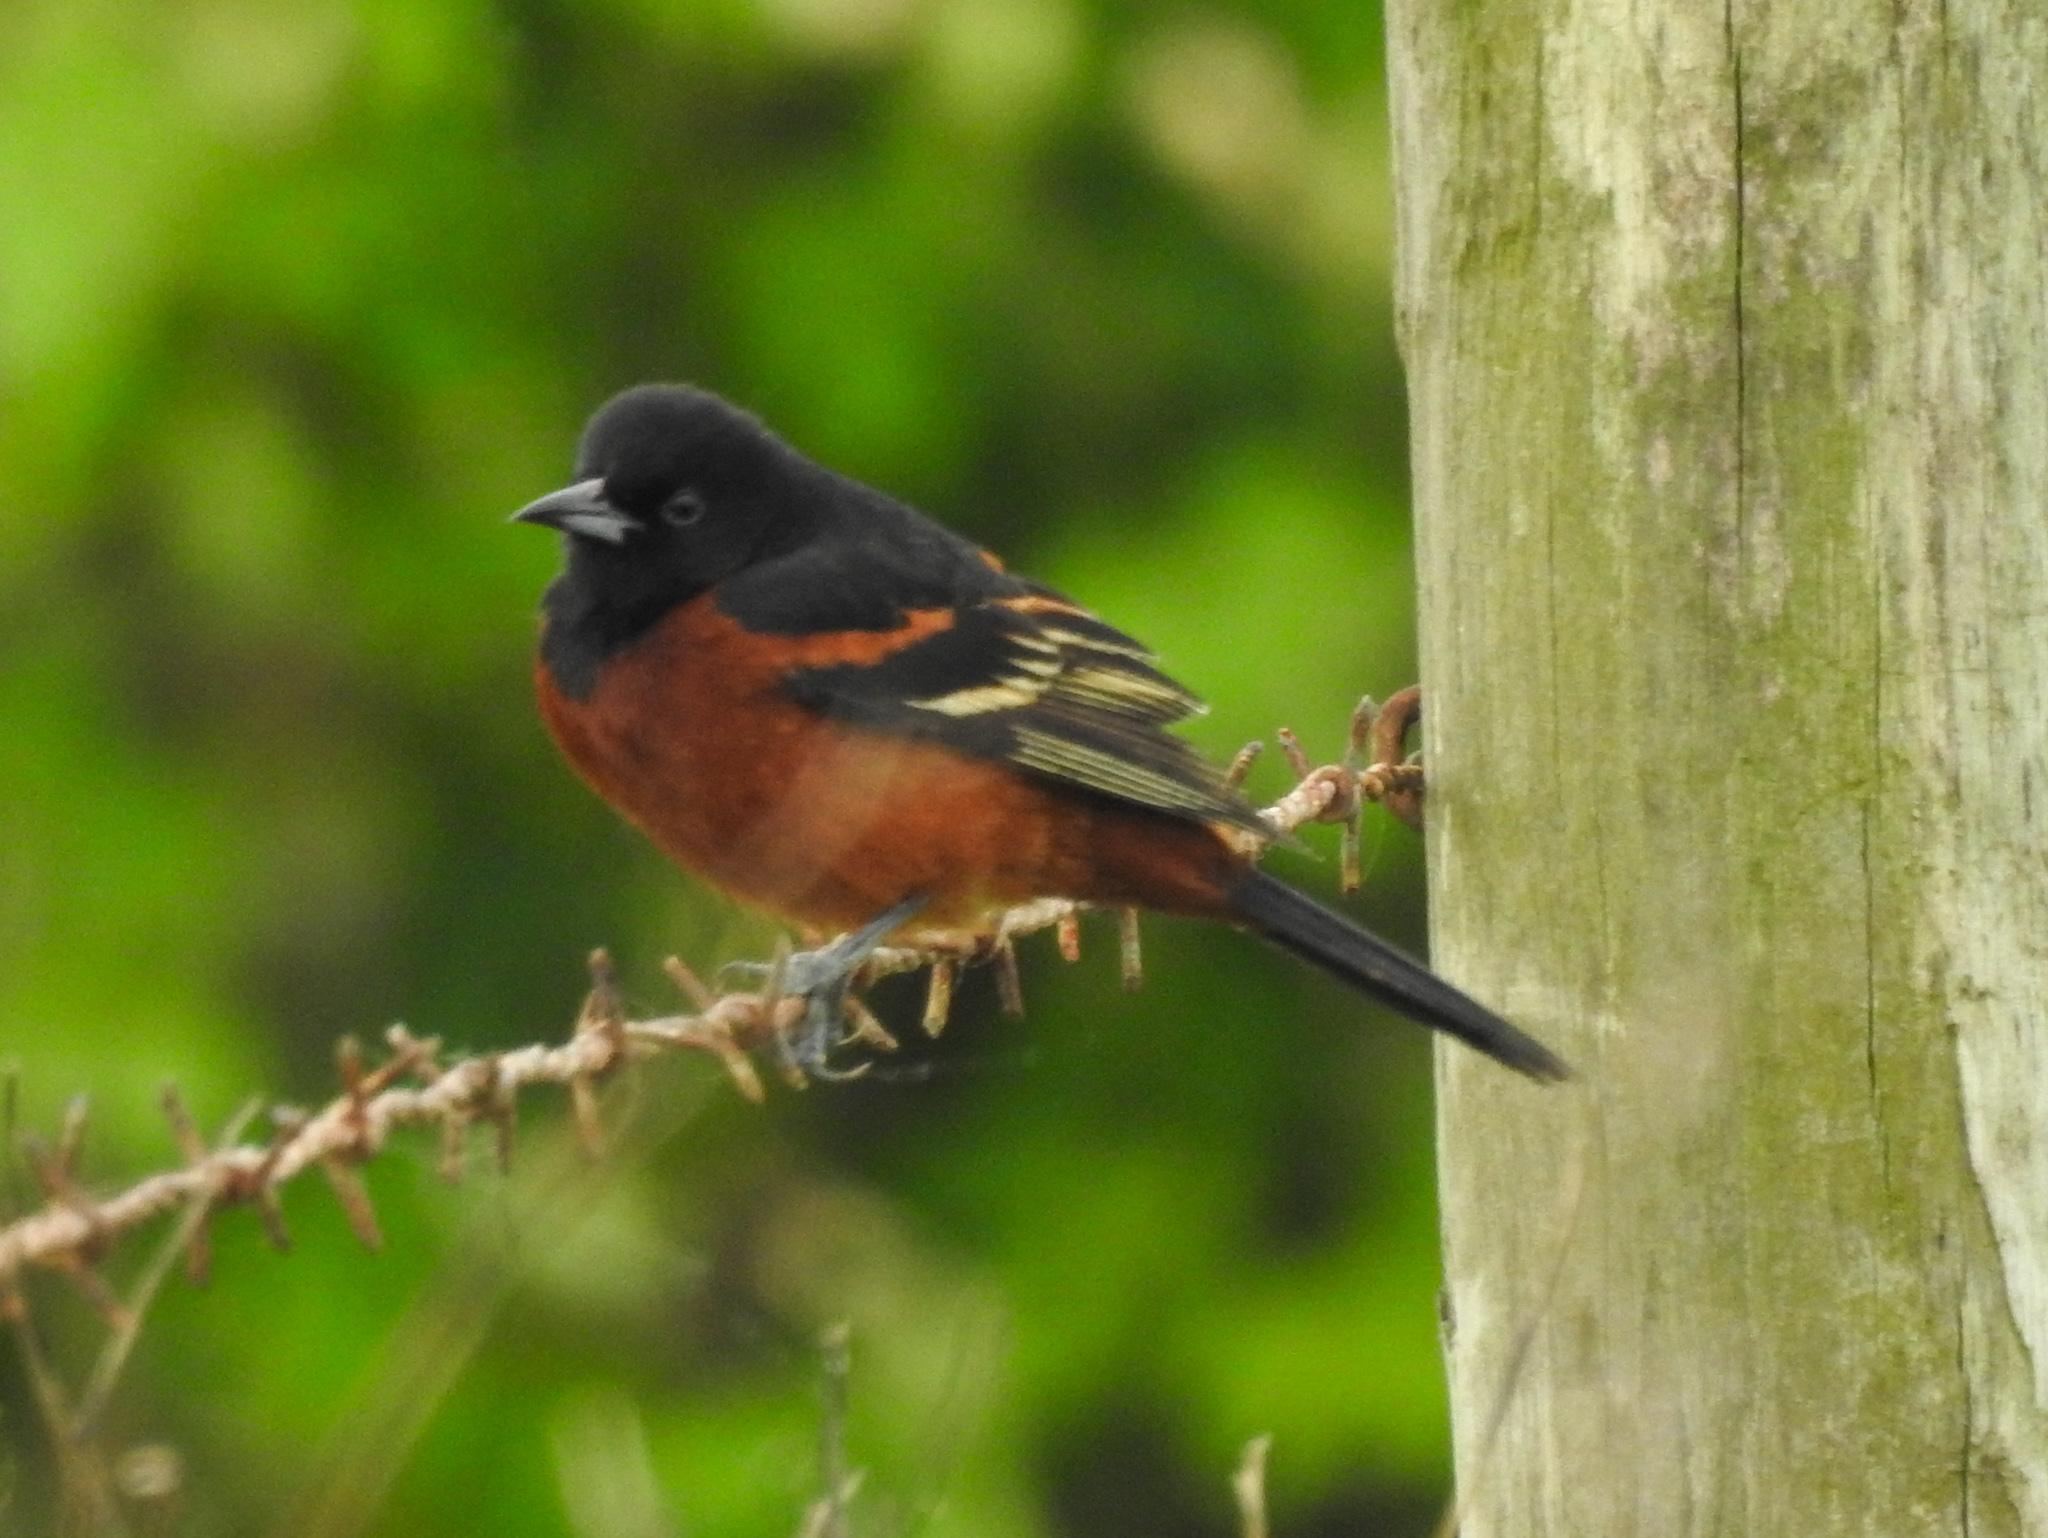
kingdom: Animalia
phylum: Chordata
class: Aves
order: Passeriformes
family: Icteridae
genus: Icterus
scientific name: Icterus spurius
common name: Orchard oriole
